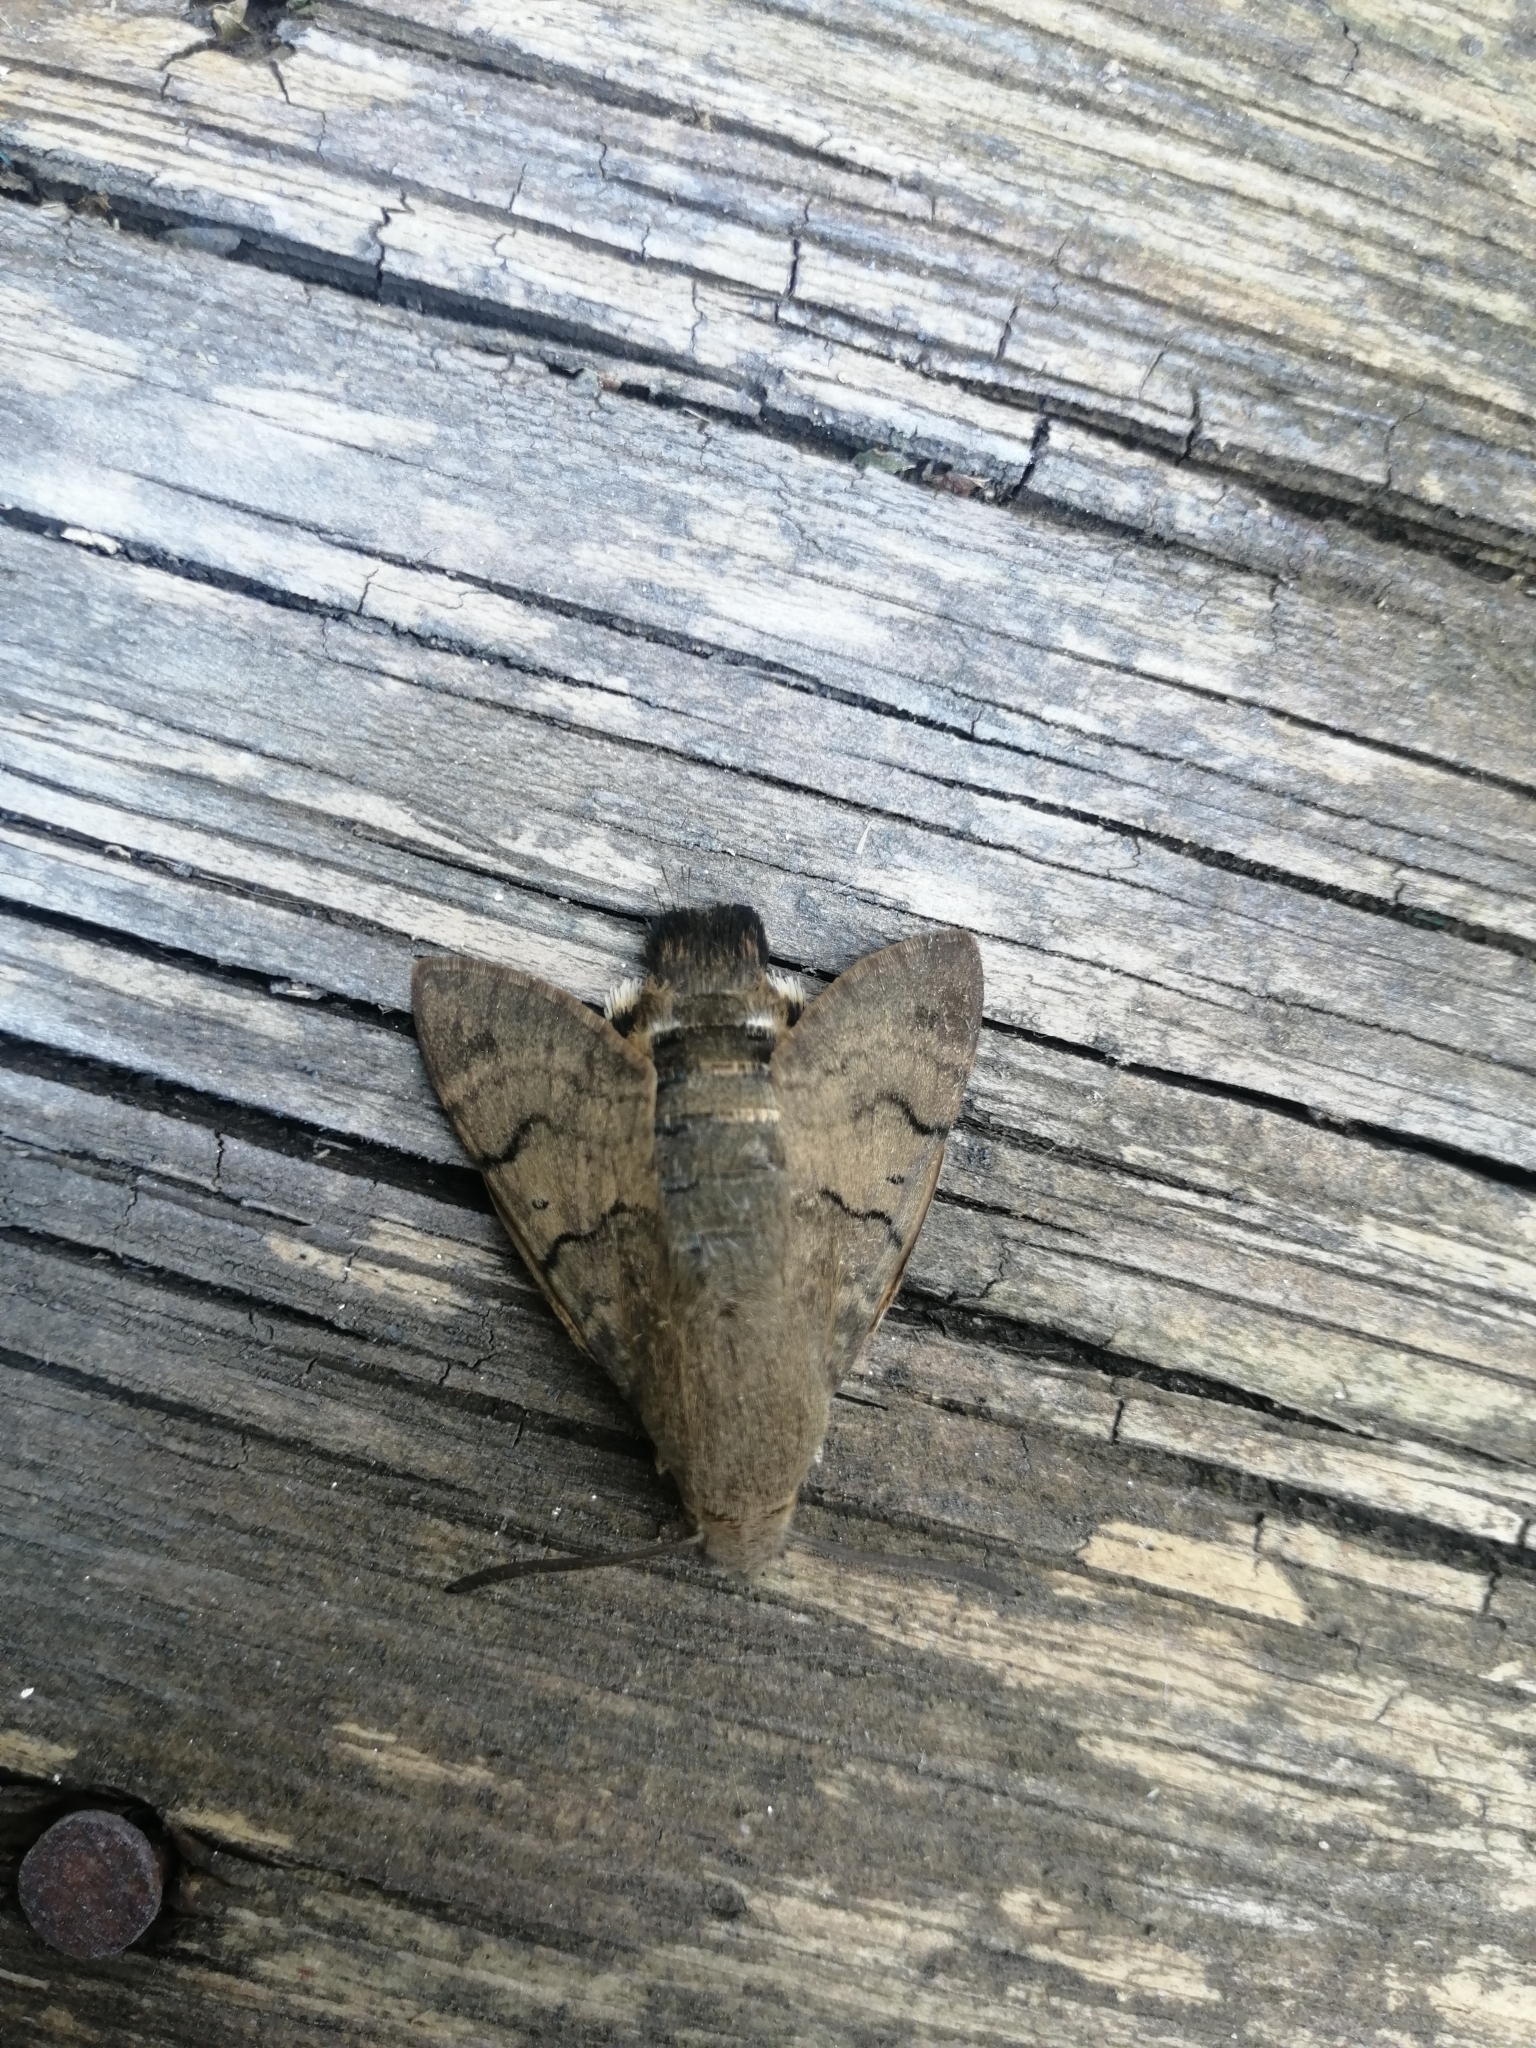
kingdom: Animalia
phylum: Arthropoda
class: Insecta
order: Lepidoptera
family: Sphingidae
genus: Macroglossum
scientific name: Macroglossum stellatarum
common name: Humming-bird hawk-moth
